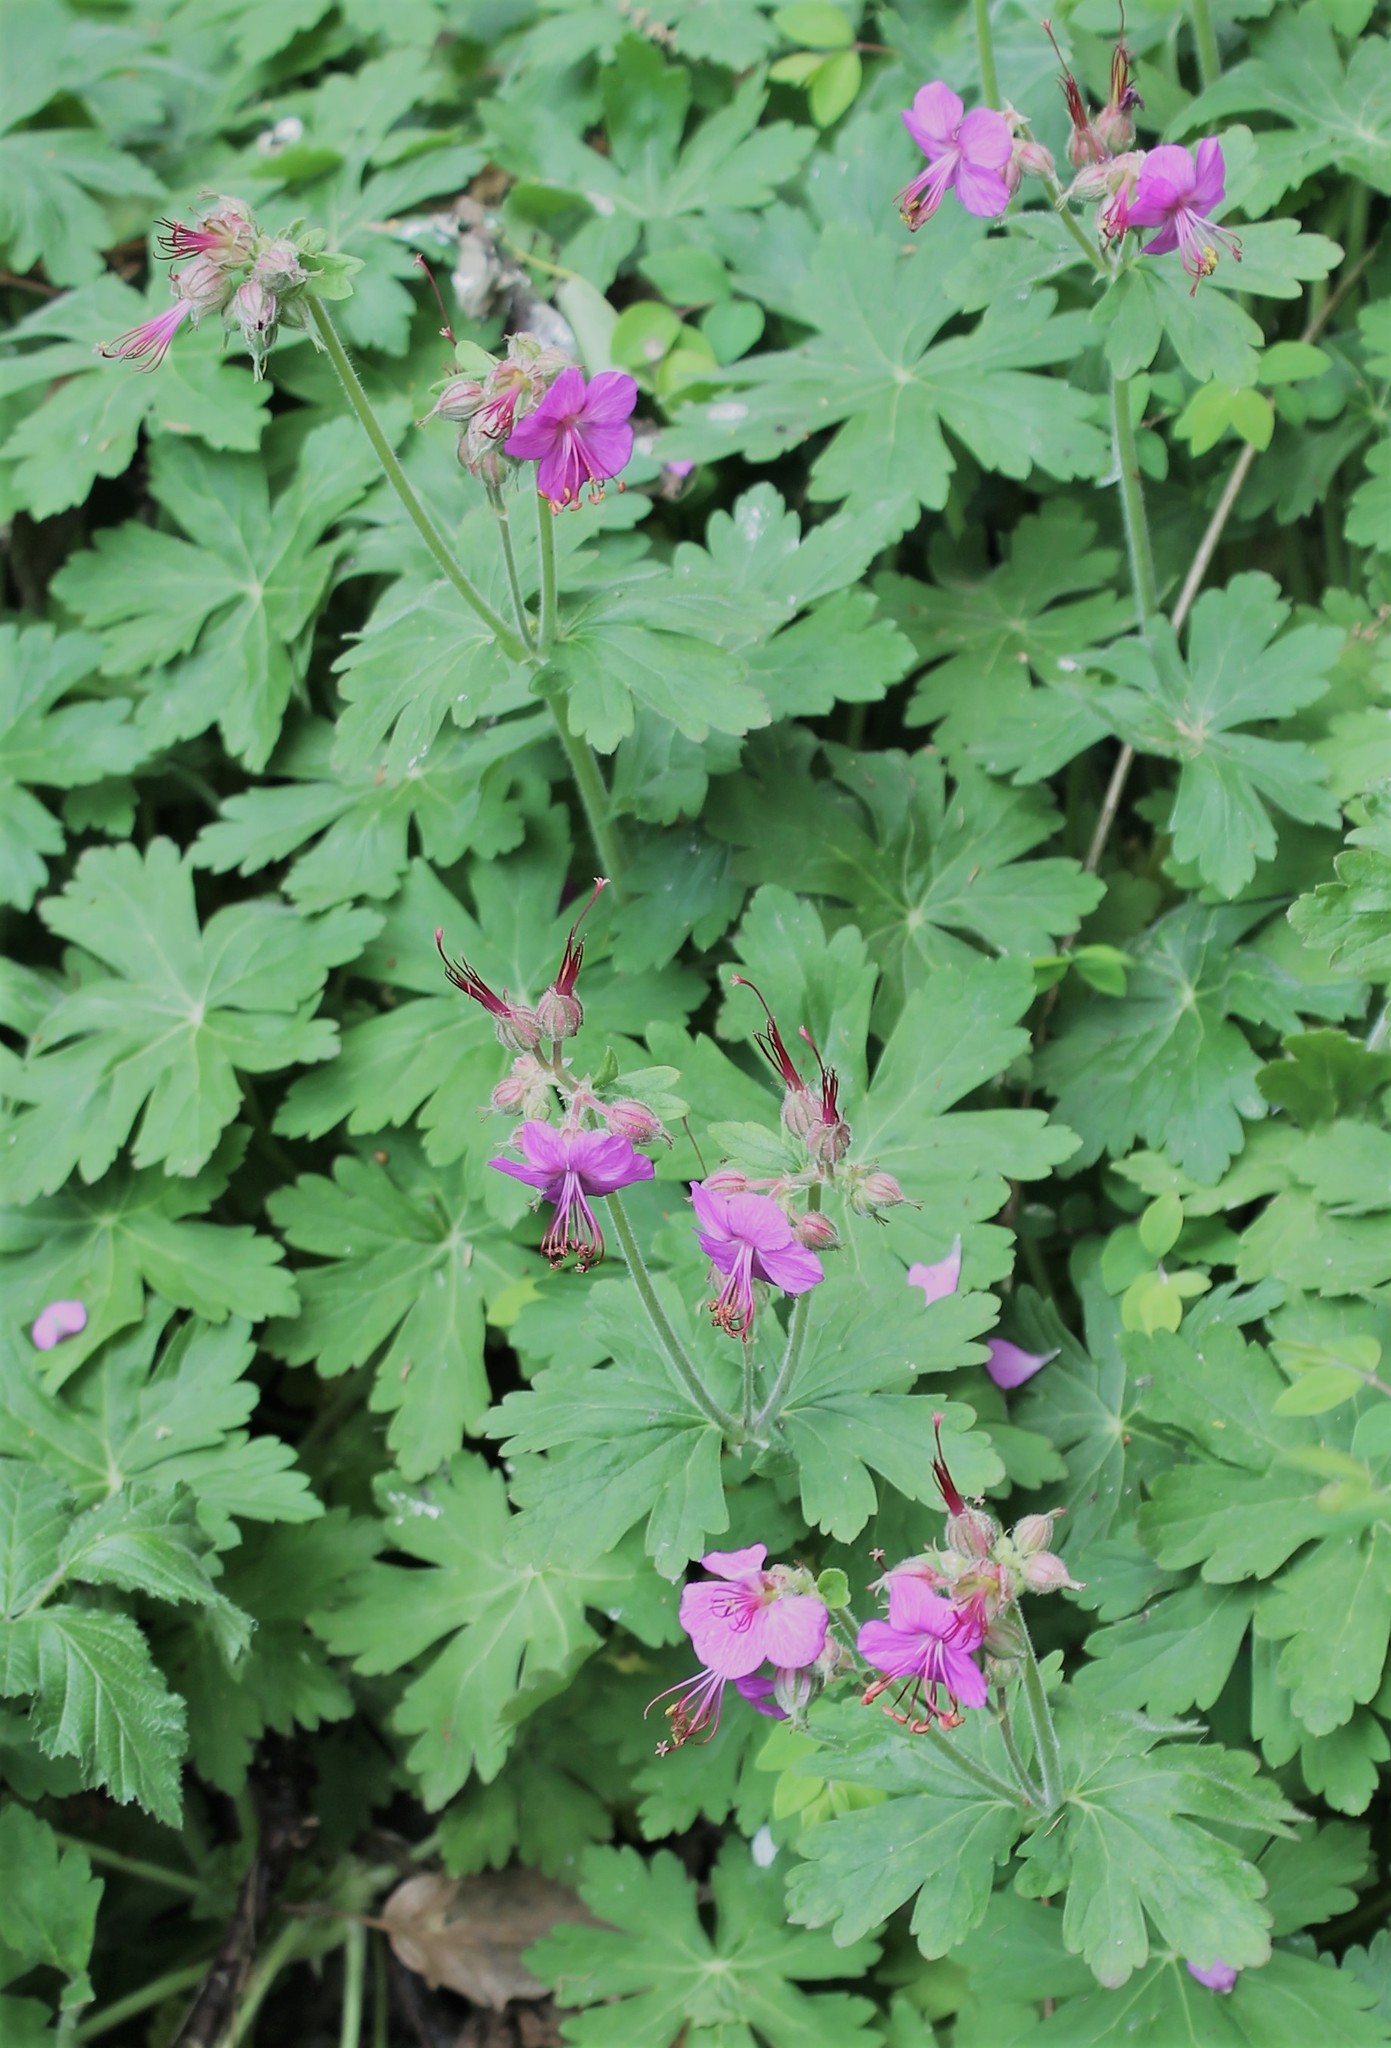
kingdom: Plantae
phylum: Tracheophyta
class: Magnoliopsida
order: Geraniales
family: Geraniaceae
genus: Geranium
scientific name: Geranium macrorrhizum
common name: Rock crane's-bill
